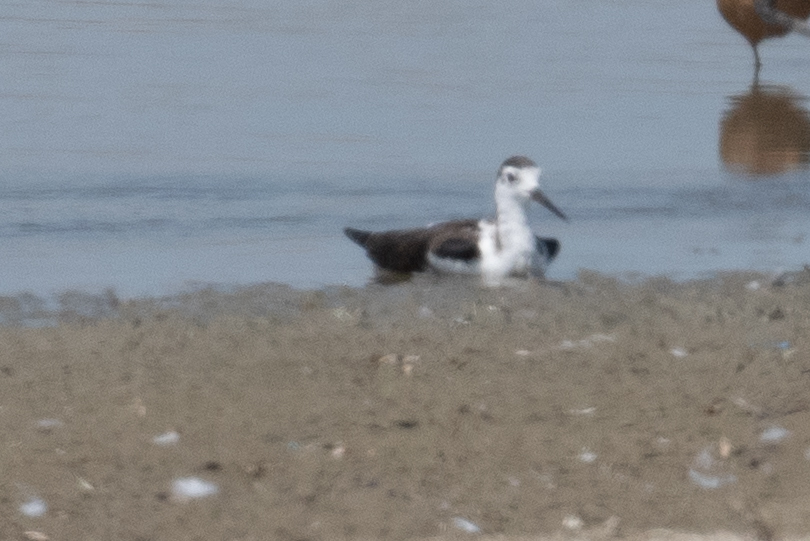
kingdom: Animalia
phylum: Chordata
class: Aves
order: Charadriiformes
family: Recurvirostridae
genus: Himantopus
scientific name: Himantopus mexicanus
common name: Black-necked stilt
